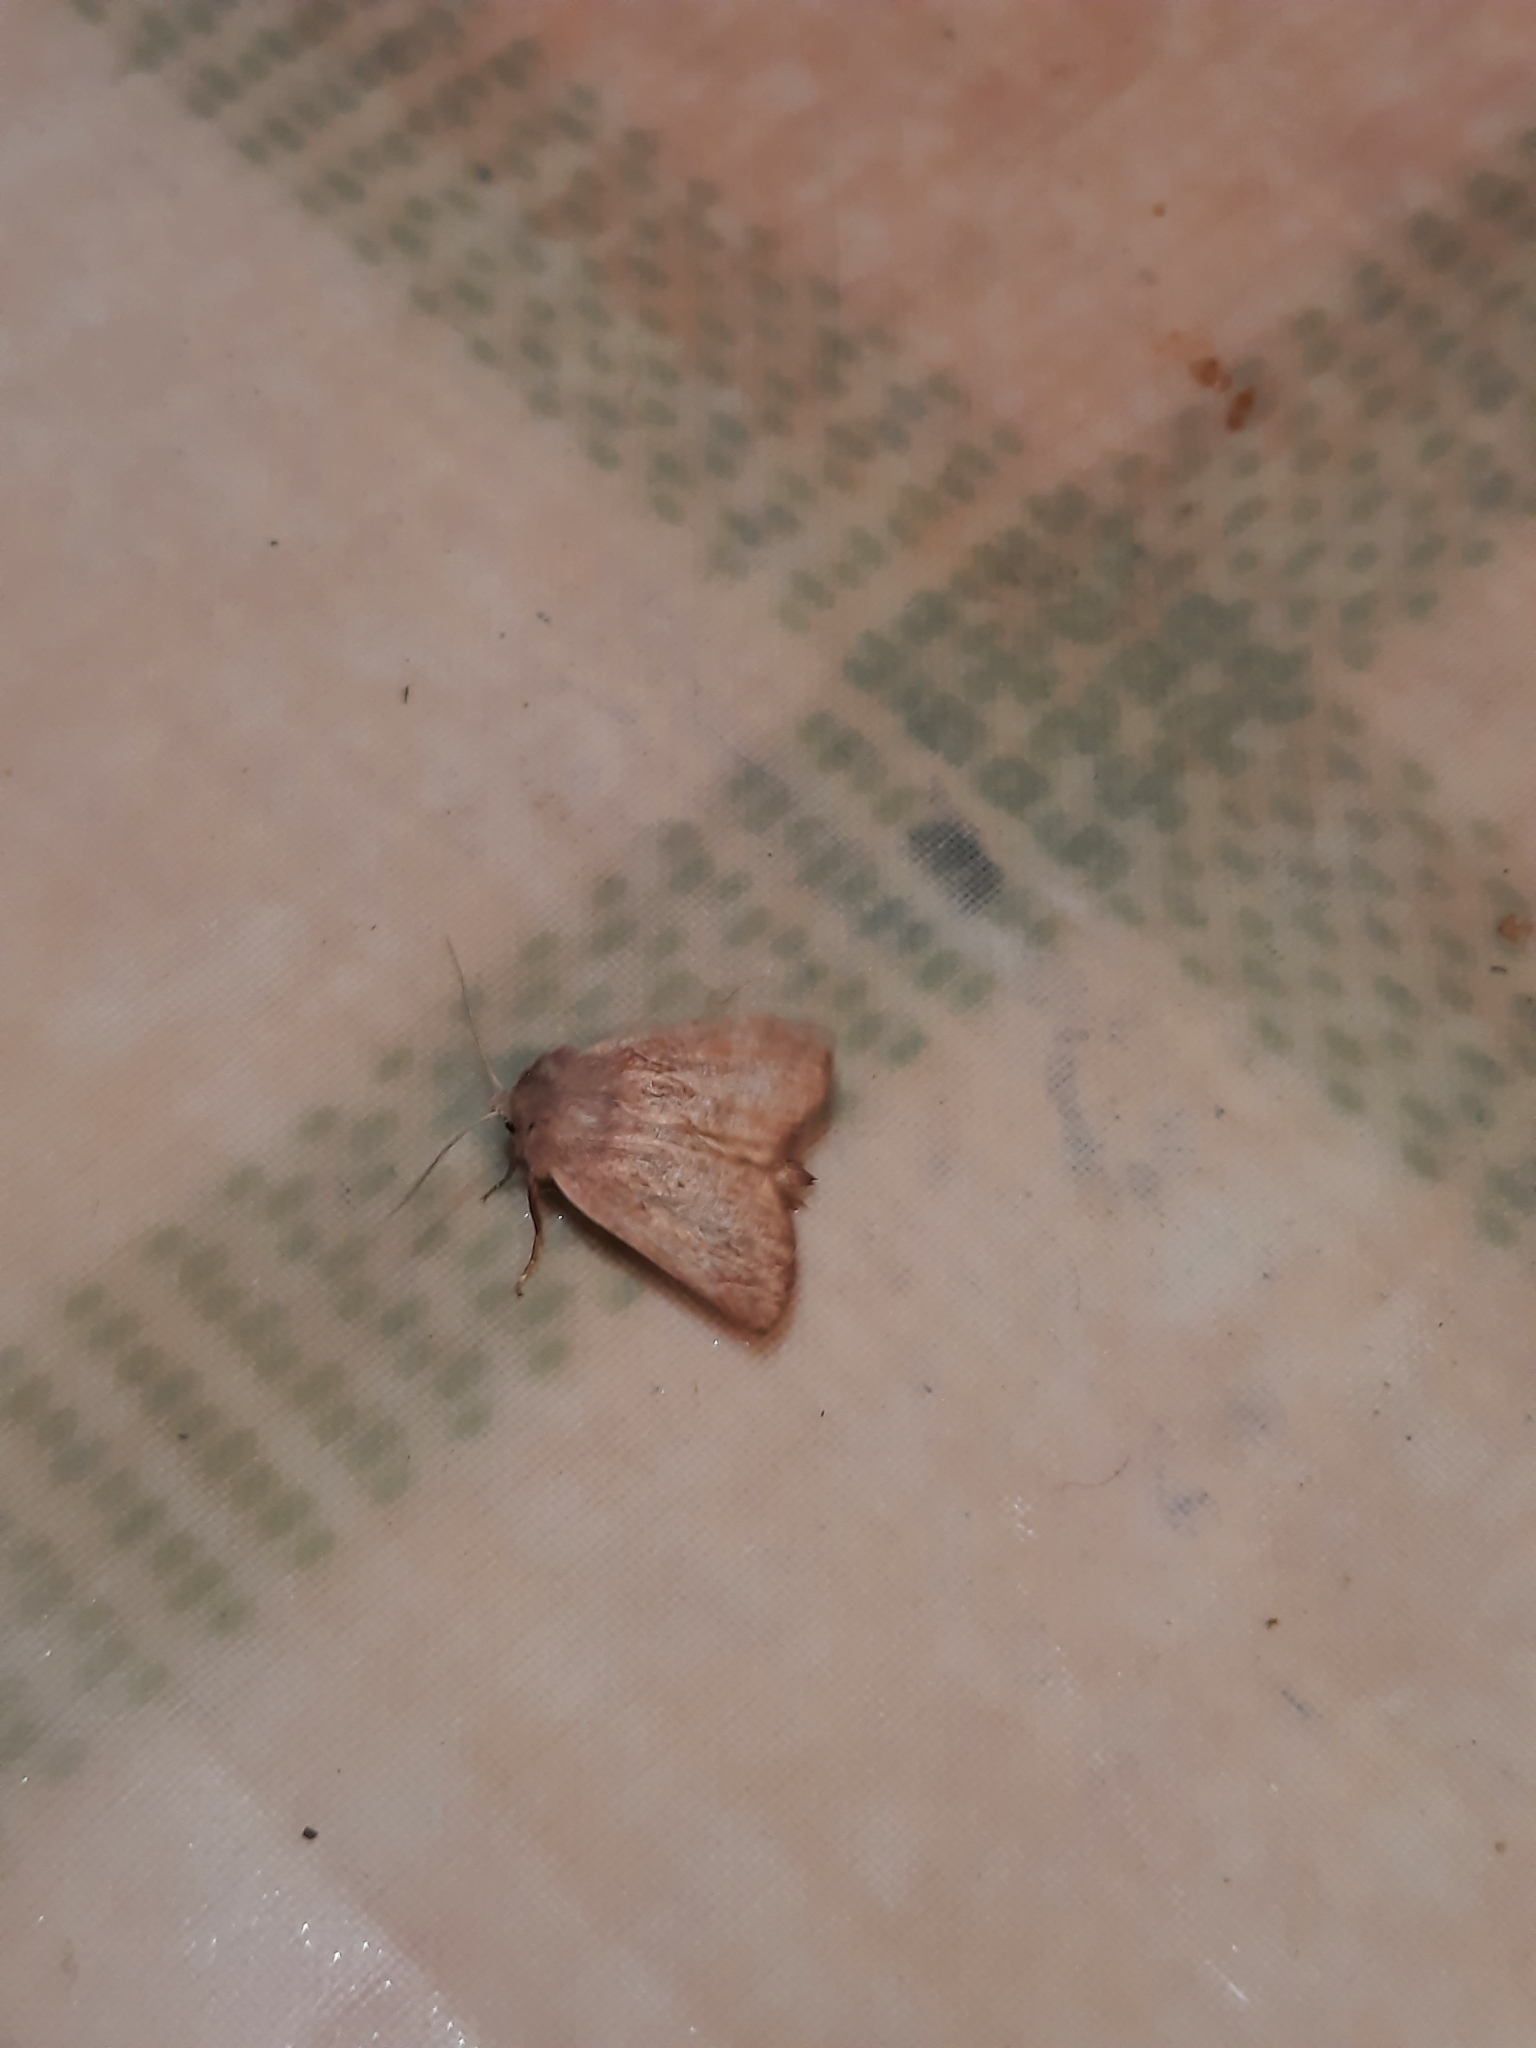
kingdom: Animalia
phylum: Arthropoda
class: Insecta
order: Lepidoptera
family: Noctuidae
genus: Photedes
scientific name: Photedes fluxa
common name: Mere wainscot
